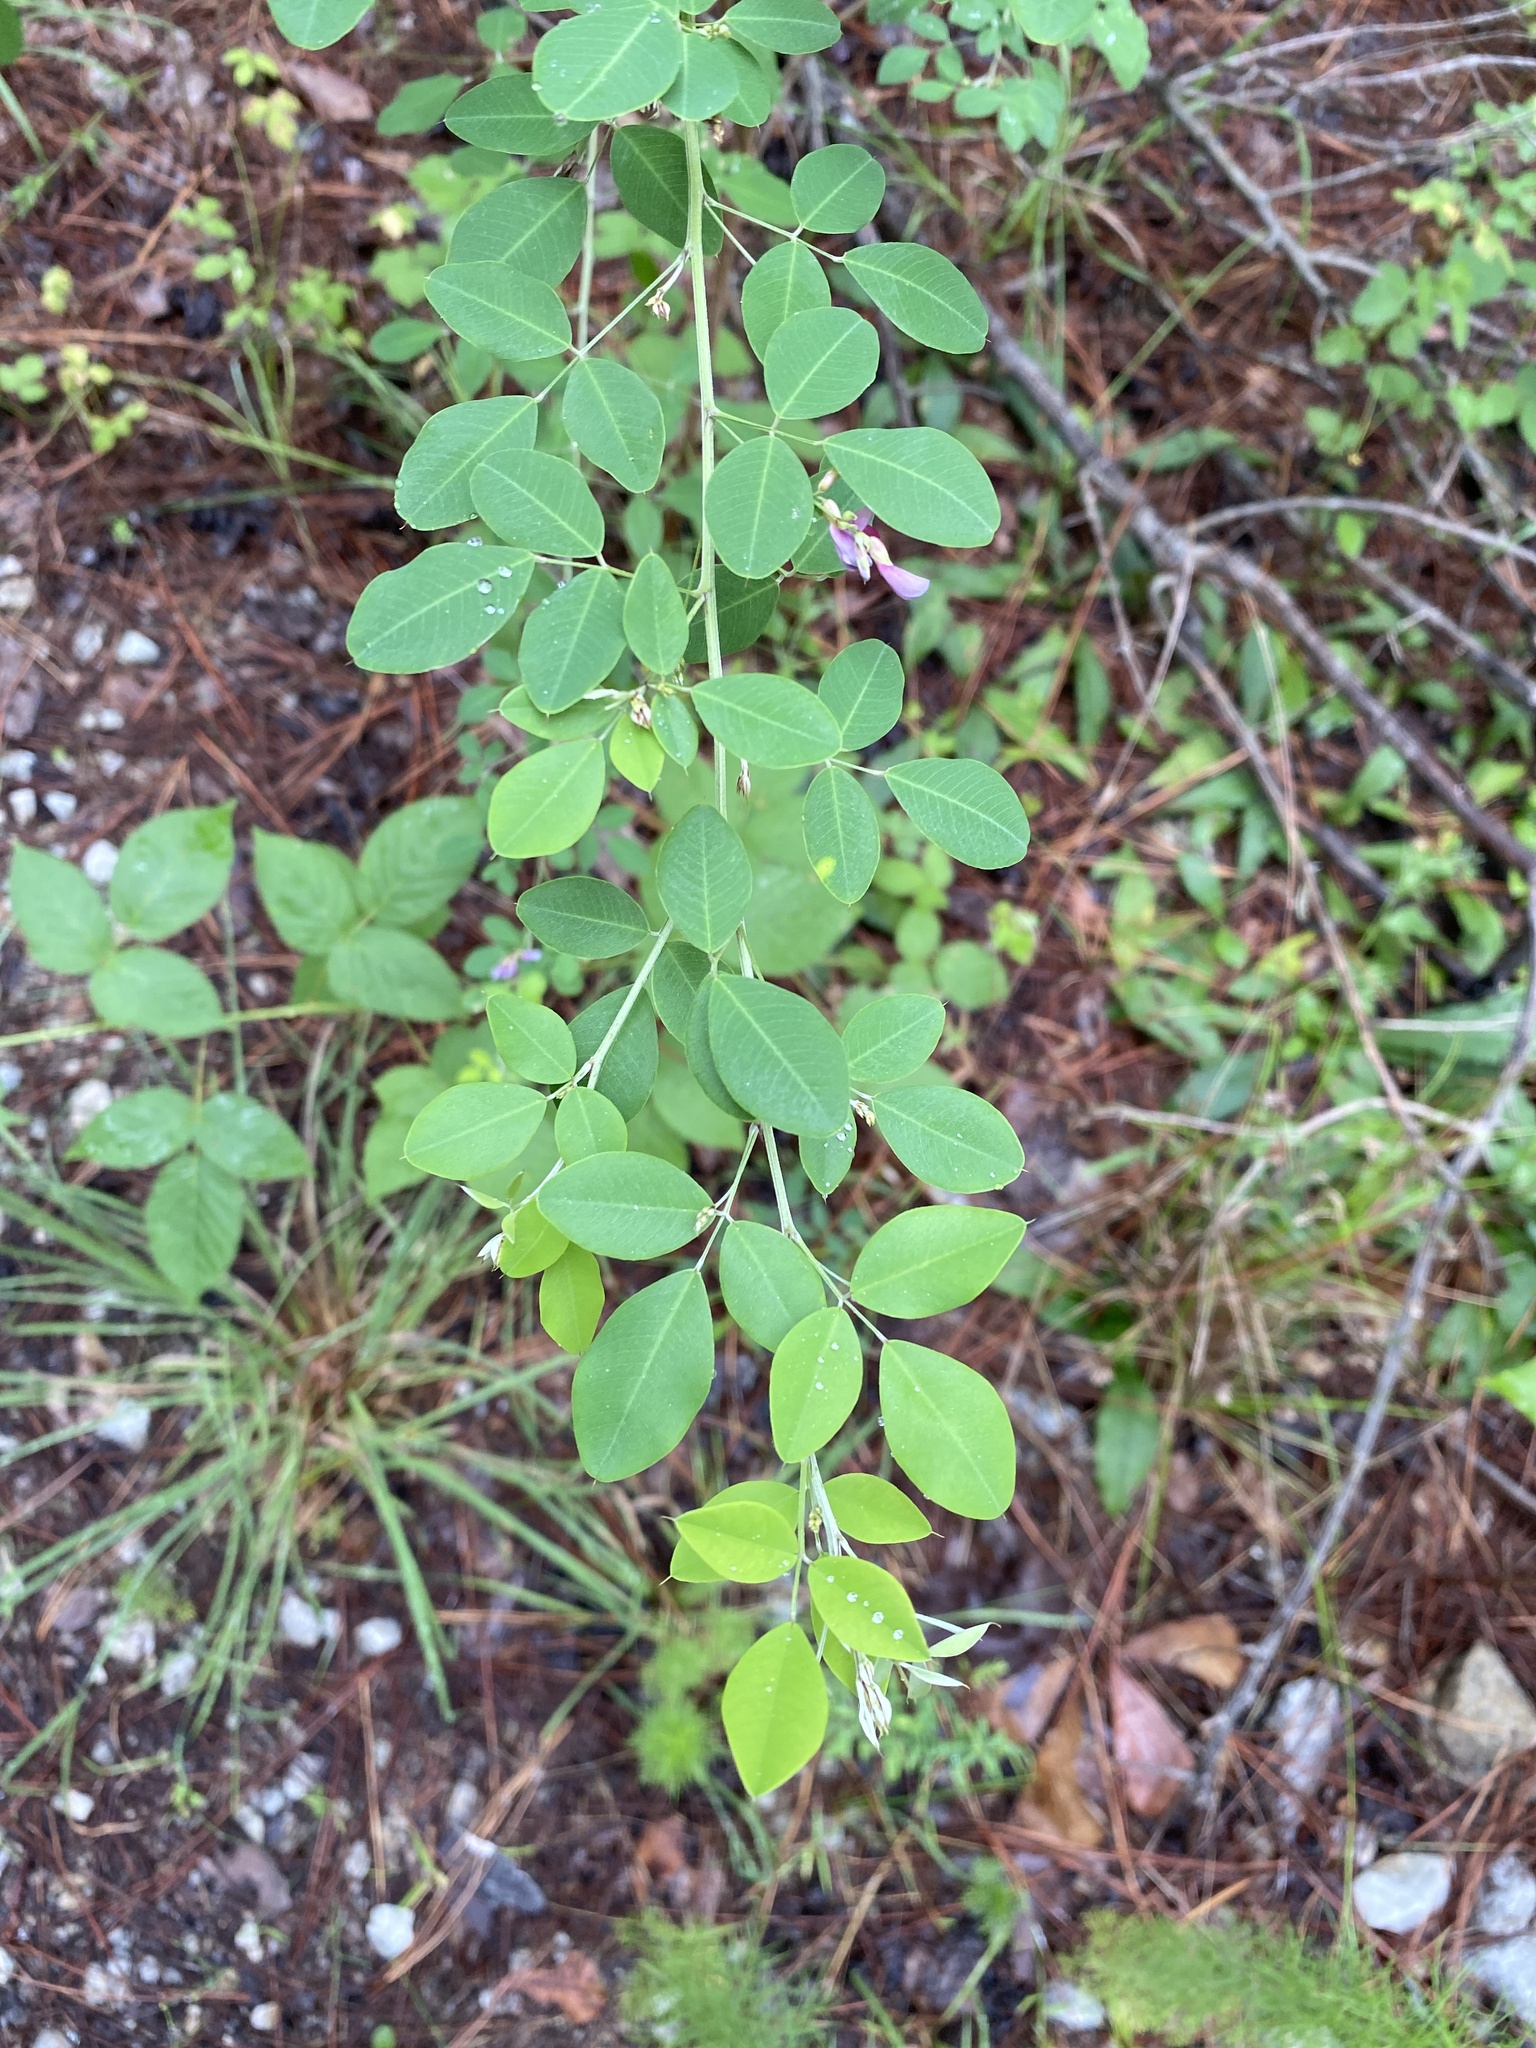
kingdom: Plantae
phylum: Tracheophyta
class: Magnoliopsida
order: Fabales
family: Fabaceae
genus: Lespedeza
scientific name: Lespedeza bicolor
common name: Shrub lespedeza
